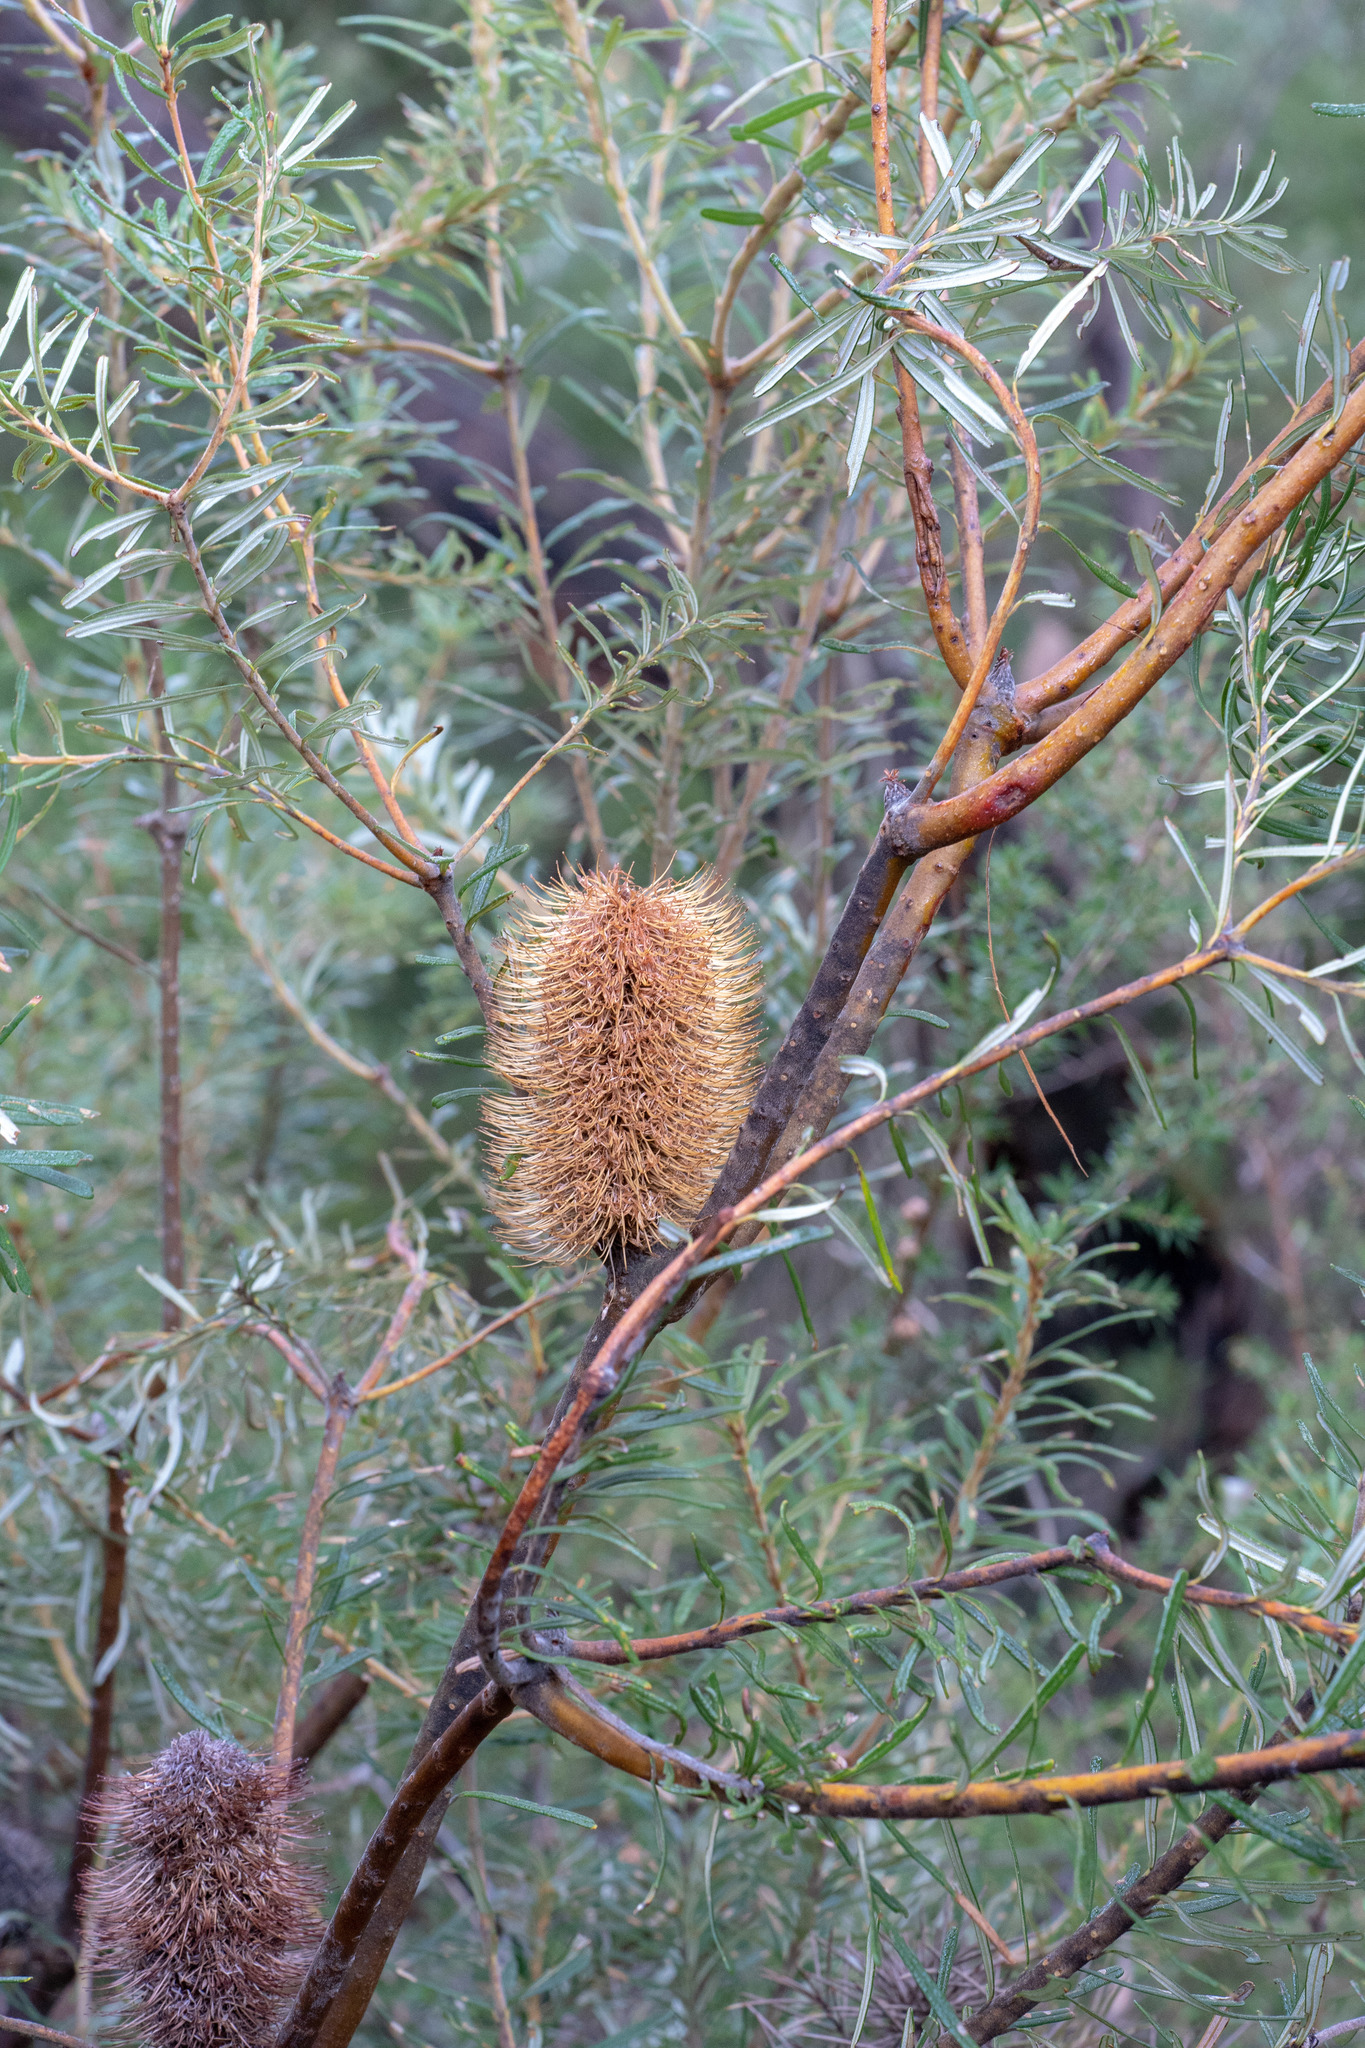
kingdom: Plantae
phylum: Tracheophyta
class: Magnoliopsida
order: Proteales
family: Proteaceae
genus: Banksia
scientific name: Banksia marginata
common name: Silver banksia
